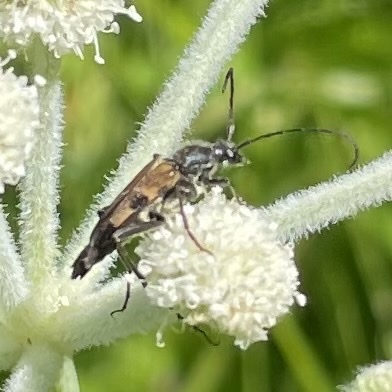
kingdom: Animalia
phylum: Arthropoda
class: Insecta
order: Coleoptera
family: Cerambycidae
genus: Etorofus
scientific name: Etorofus
